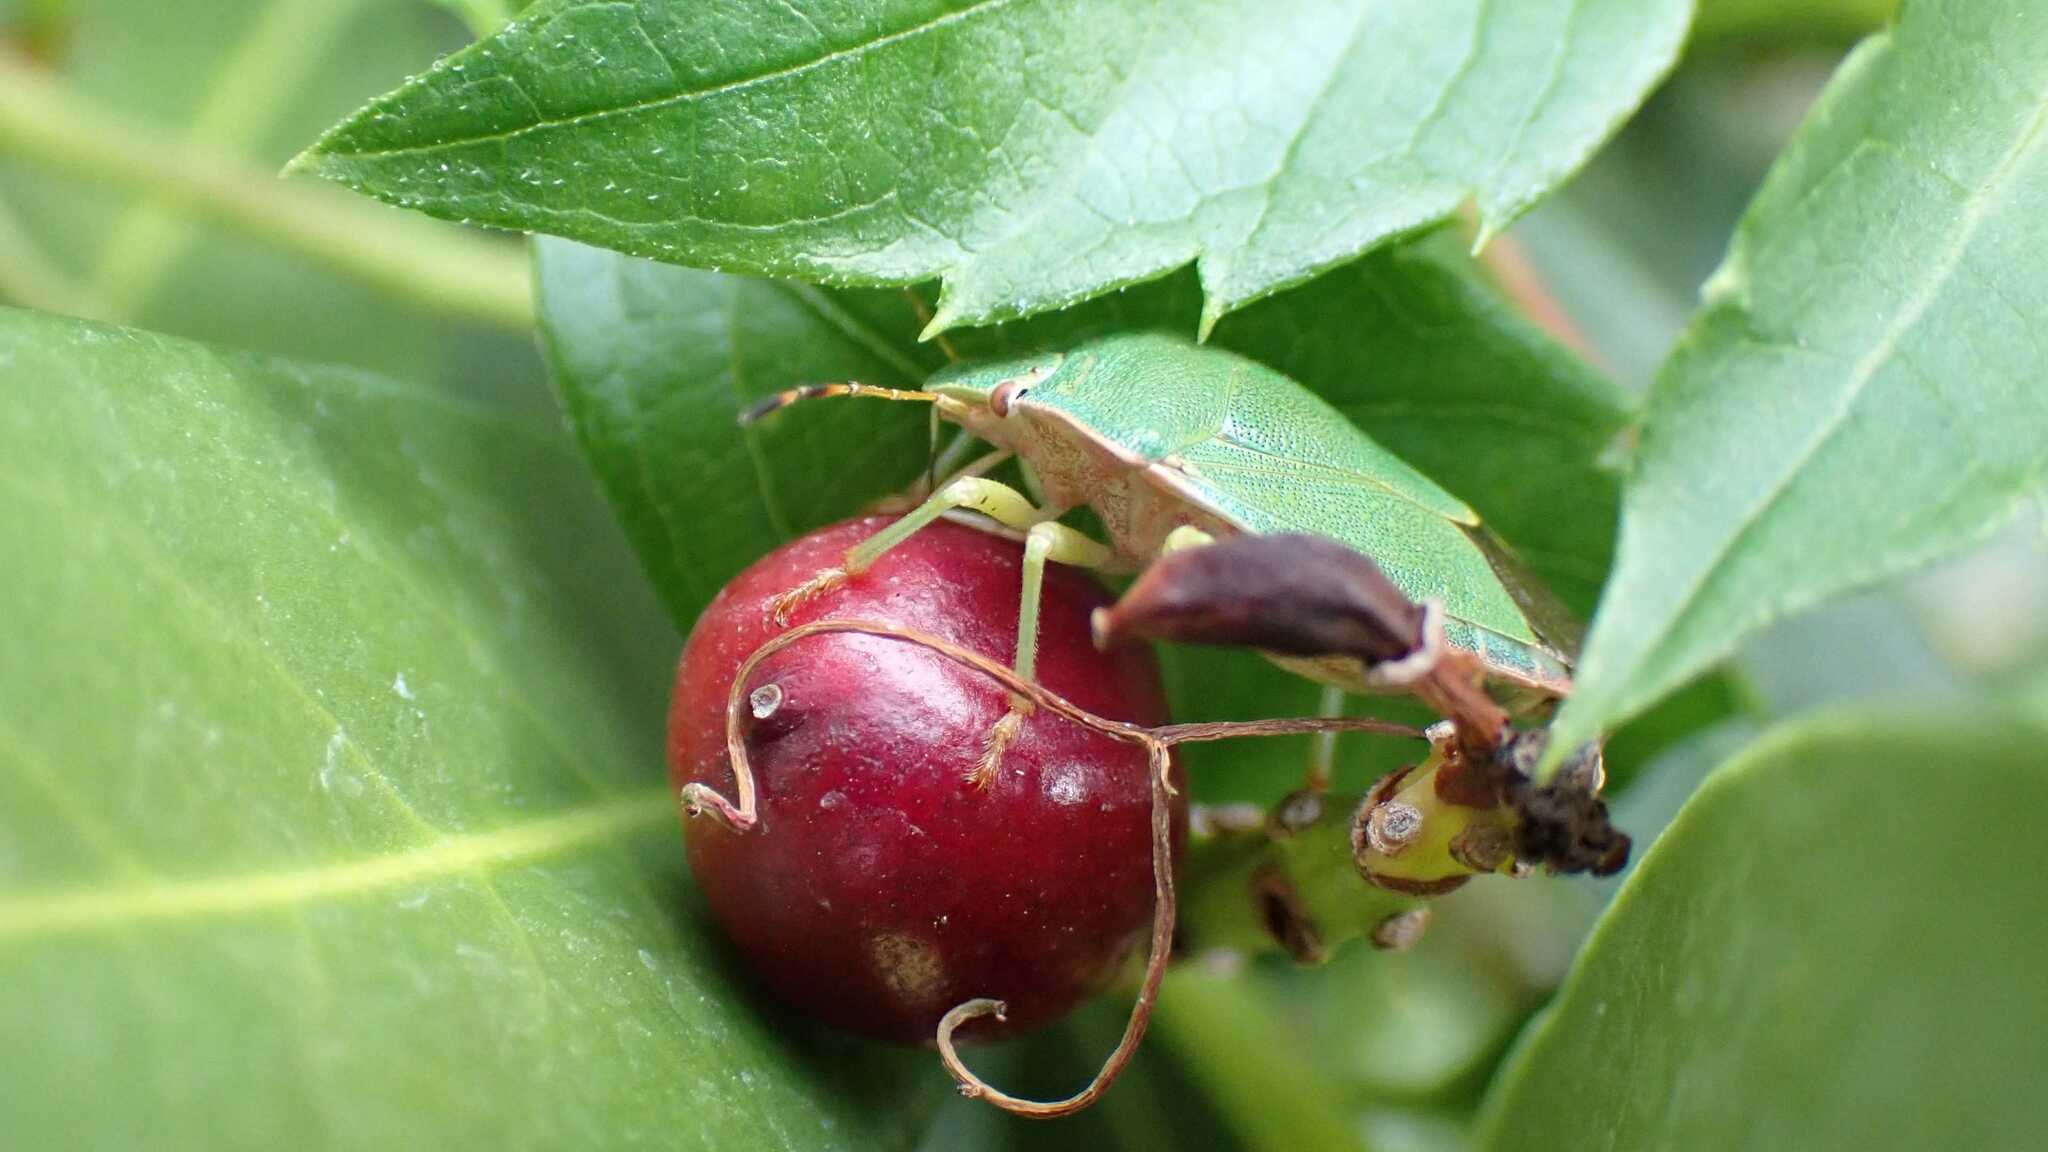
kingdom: Animalia
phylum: Arthropoda
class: Insecta
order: Hemiptera
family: Pentatomidae
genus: Palomena
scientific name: Palomena prasina
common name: Green shieldbug
